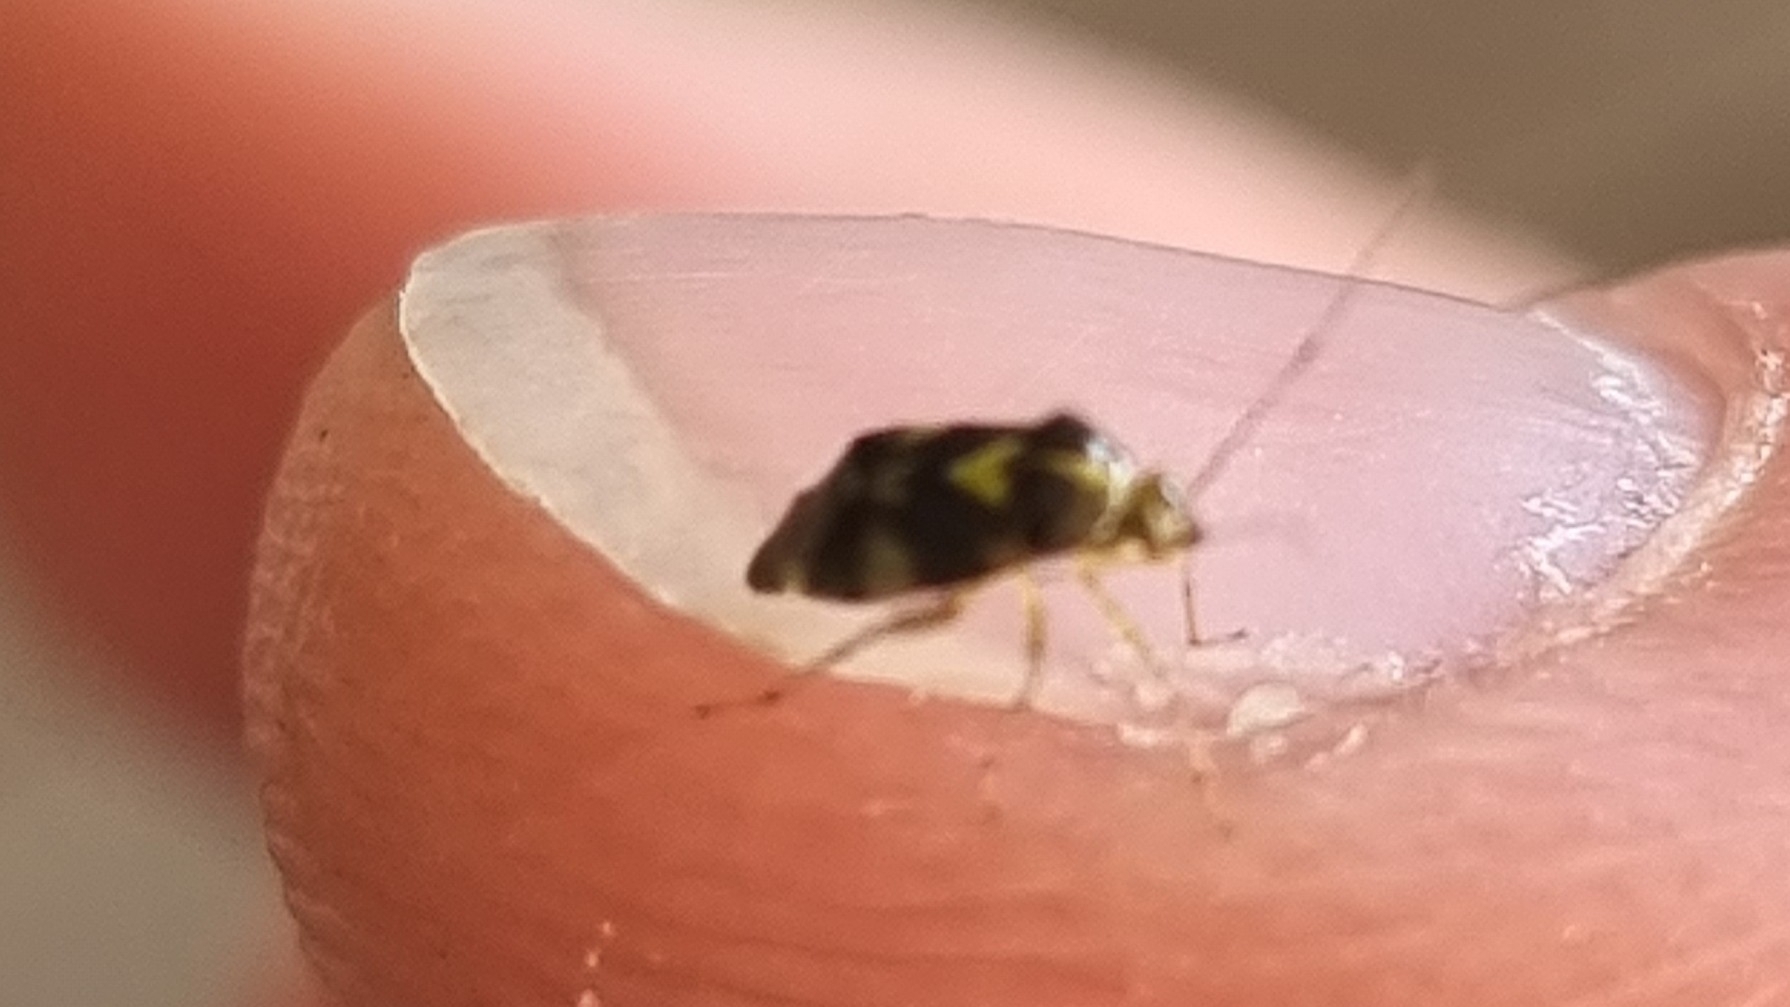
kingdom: Animalia
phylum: Arthropoda
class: Insecta
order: Hemiptera
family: Miridae
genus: Liocoris
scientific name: Liocoris tripustulatus
